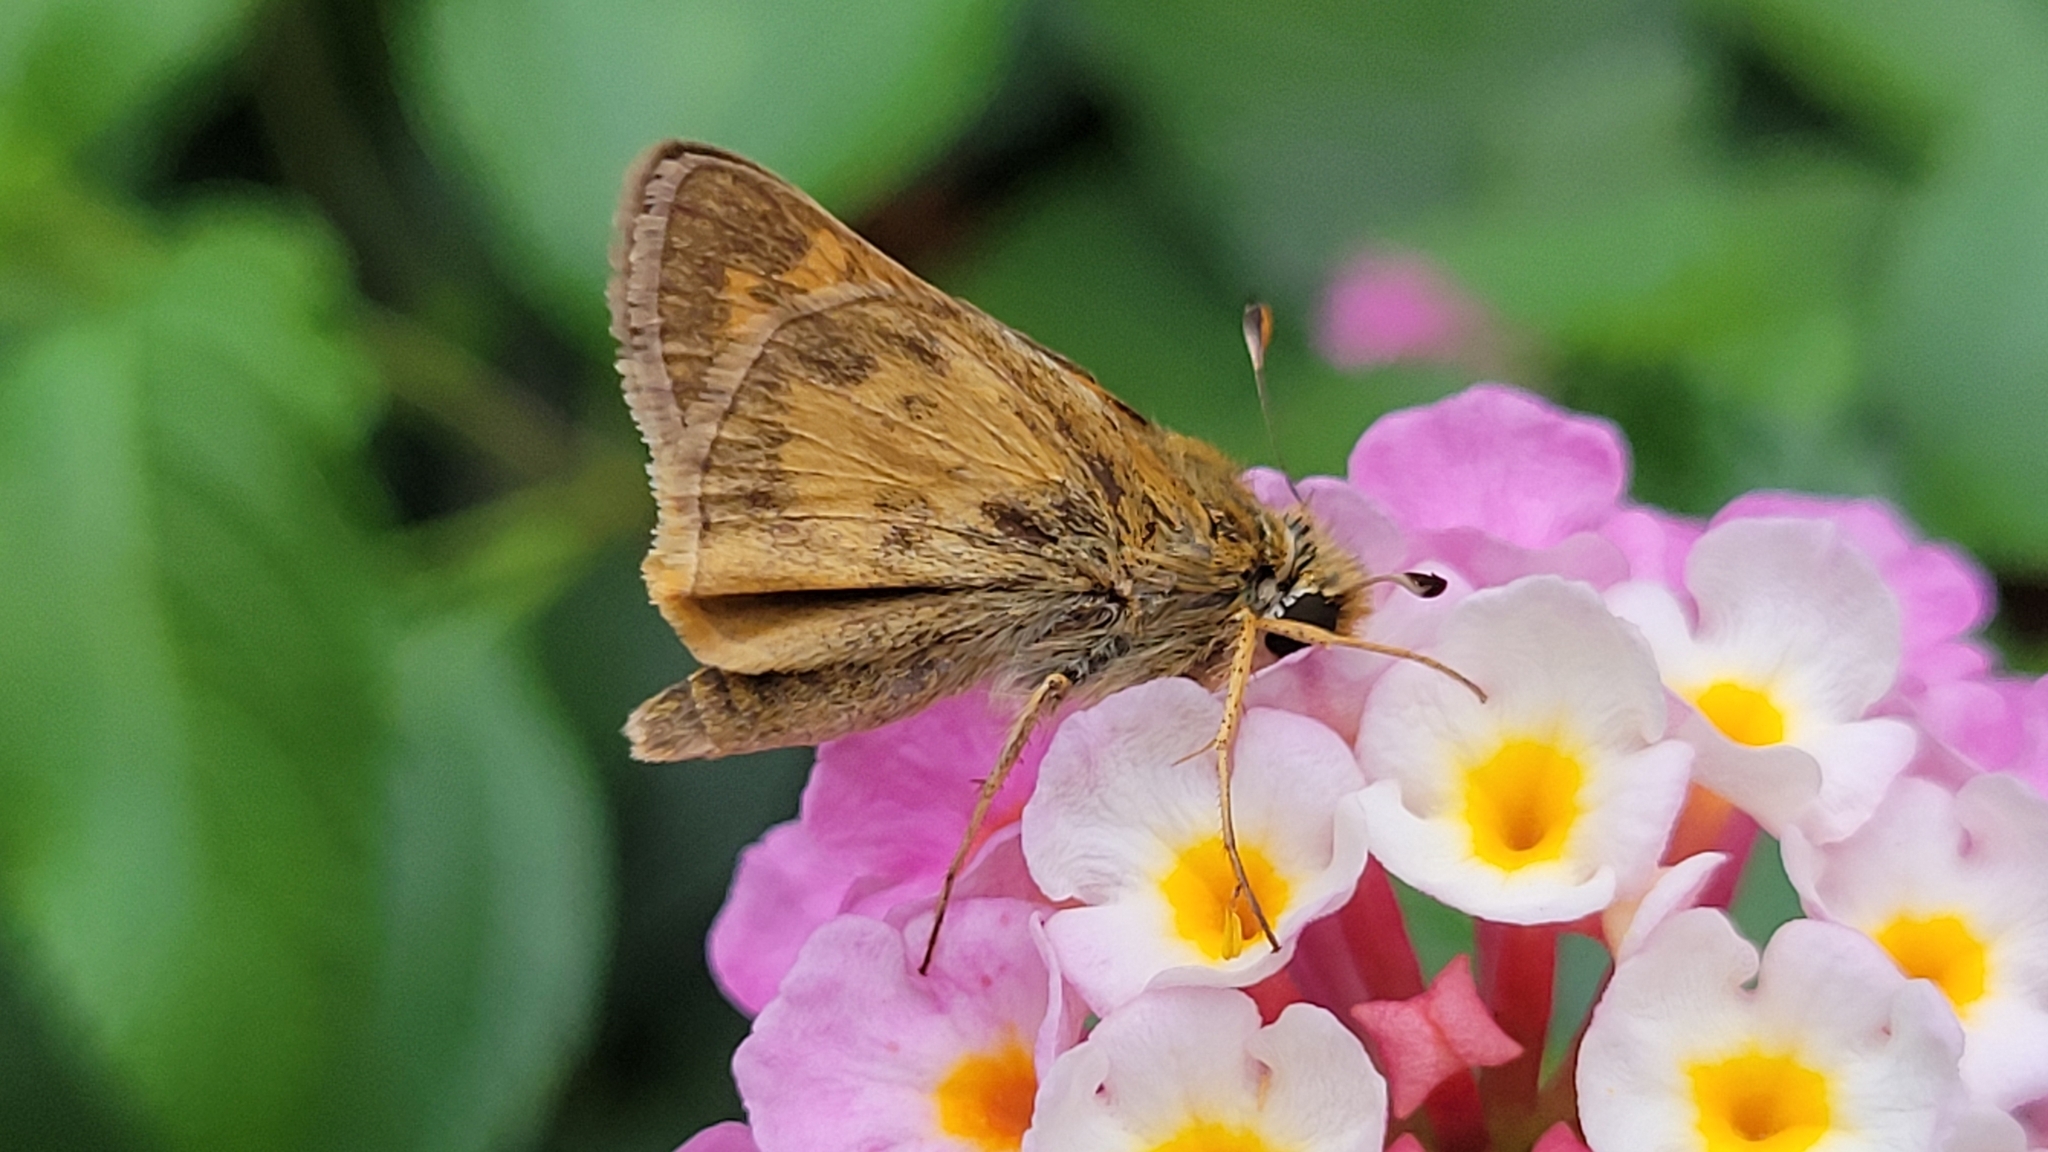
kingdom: Animalia
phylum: Arthropoda
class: Insecta
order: Lepidoptera
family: Hesperiidae
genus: Atalopedes
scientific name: Atalopedes
